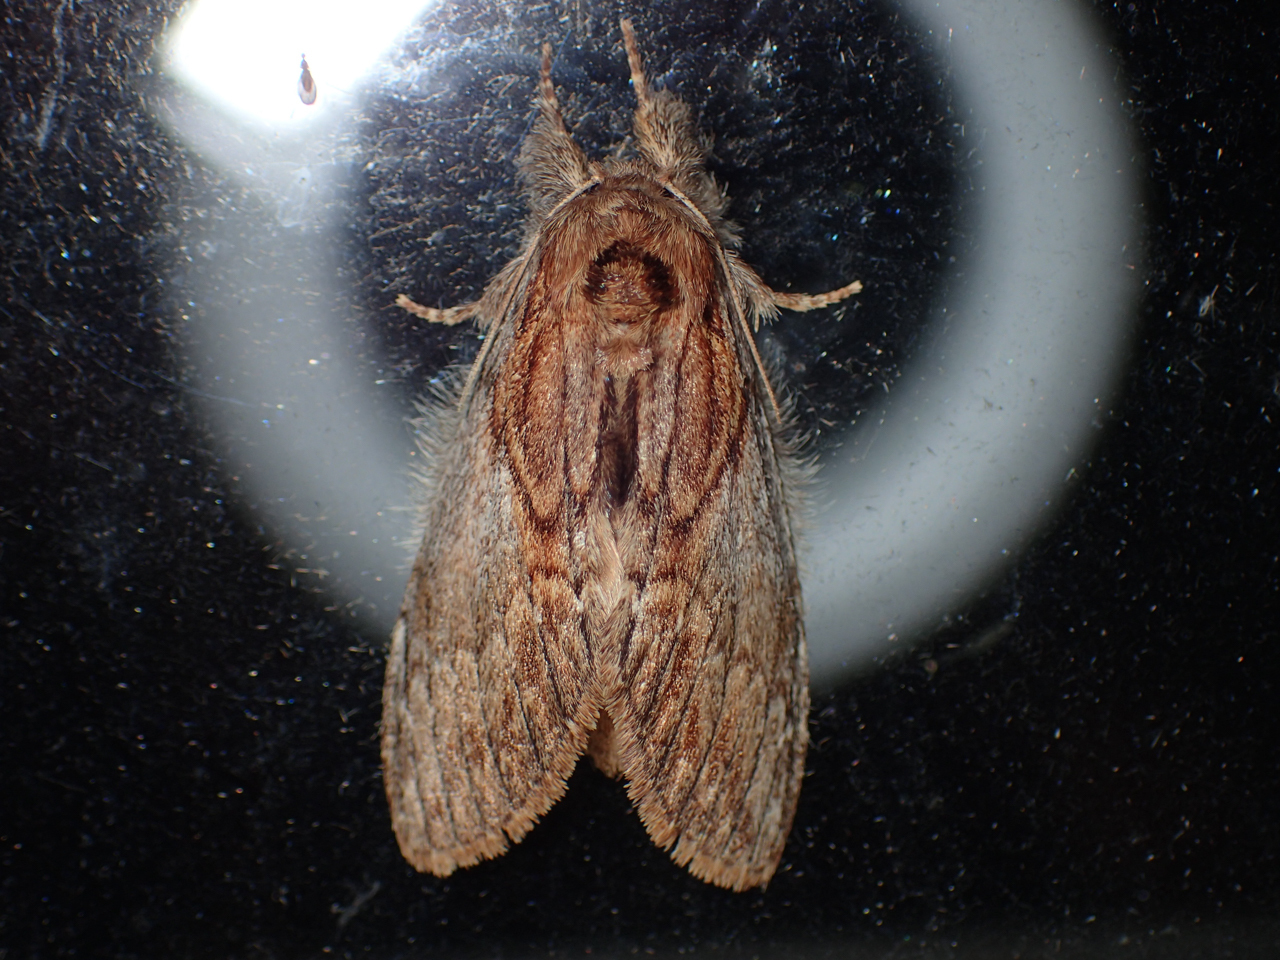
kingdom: Animalia
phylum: Arthropoda
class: Insecta
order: Lepidoptera
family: Notodontidae
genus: Peridea
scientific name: Peridea basitriens
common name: Oval-based prominent
